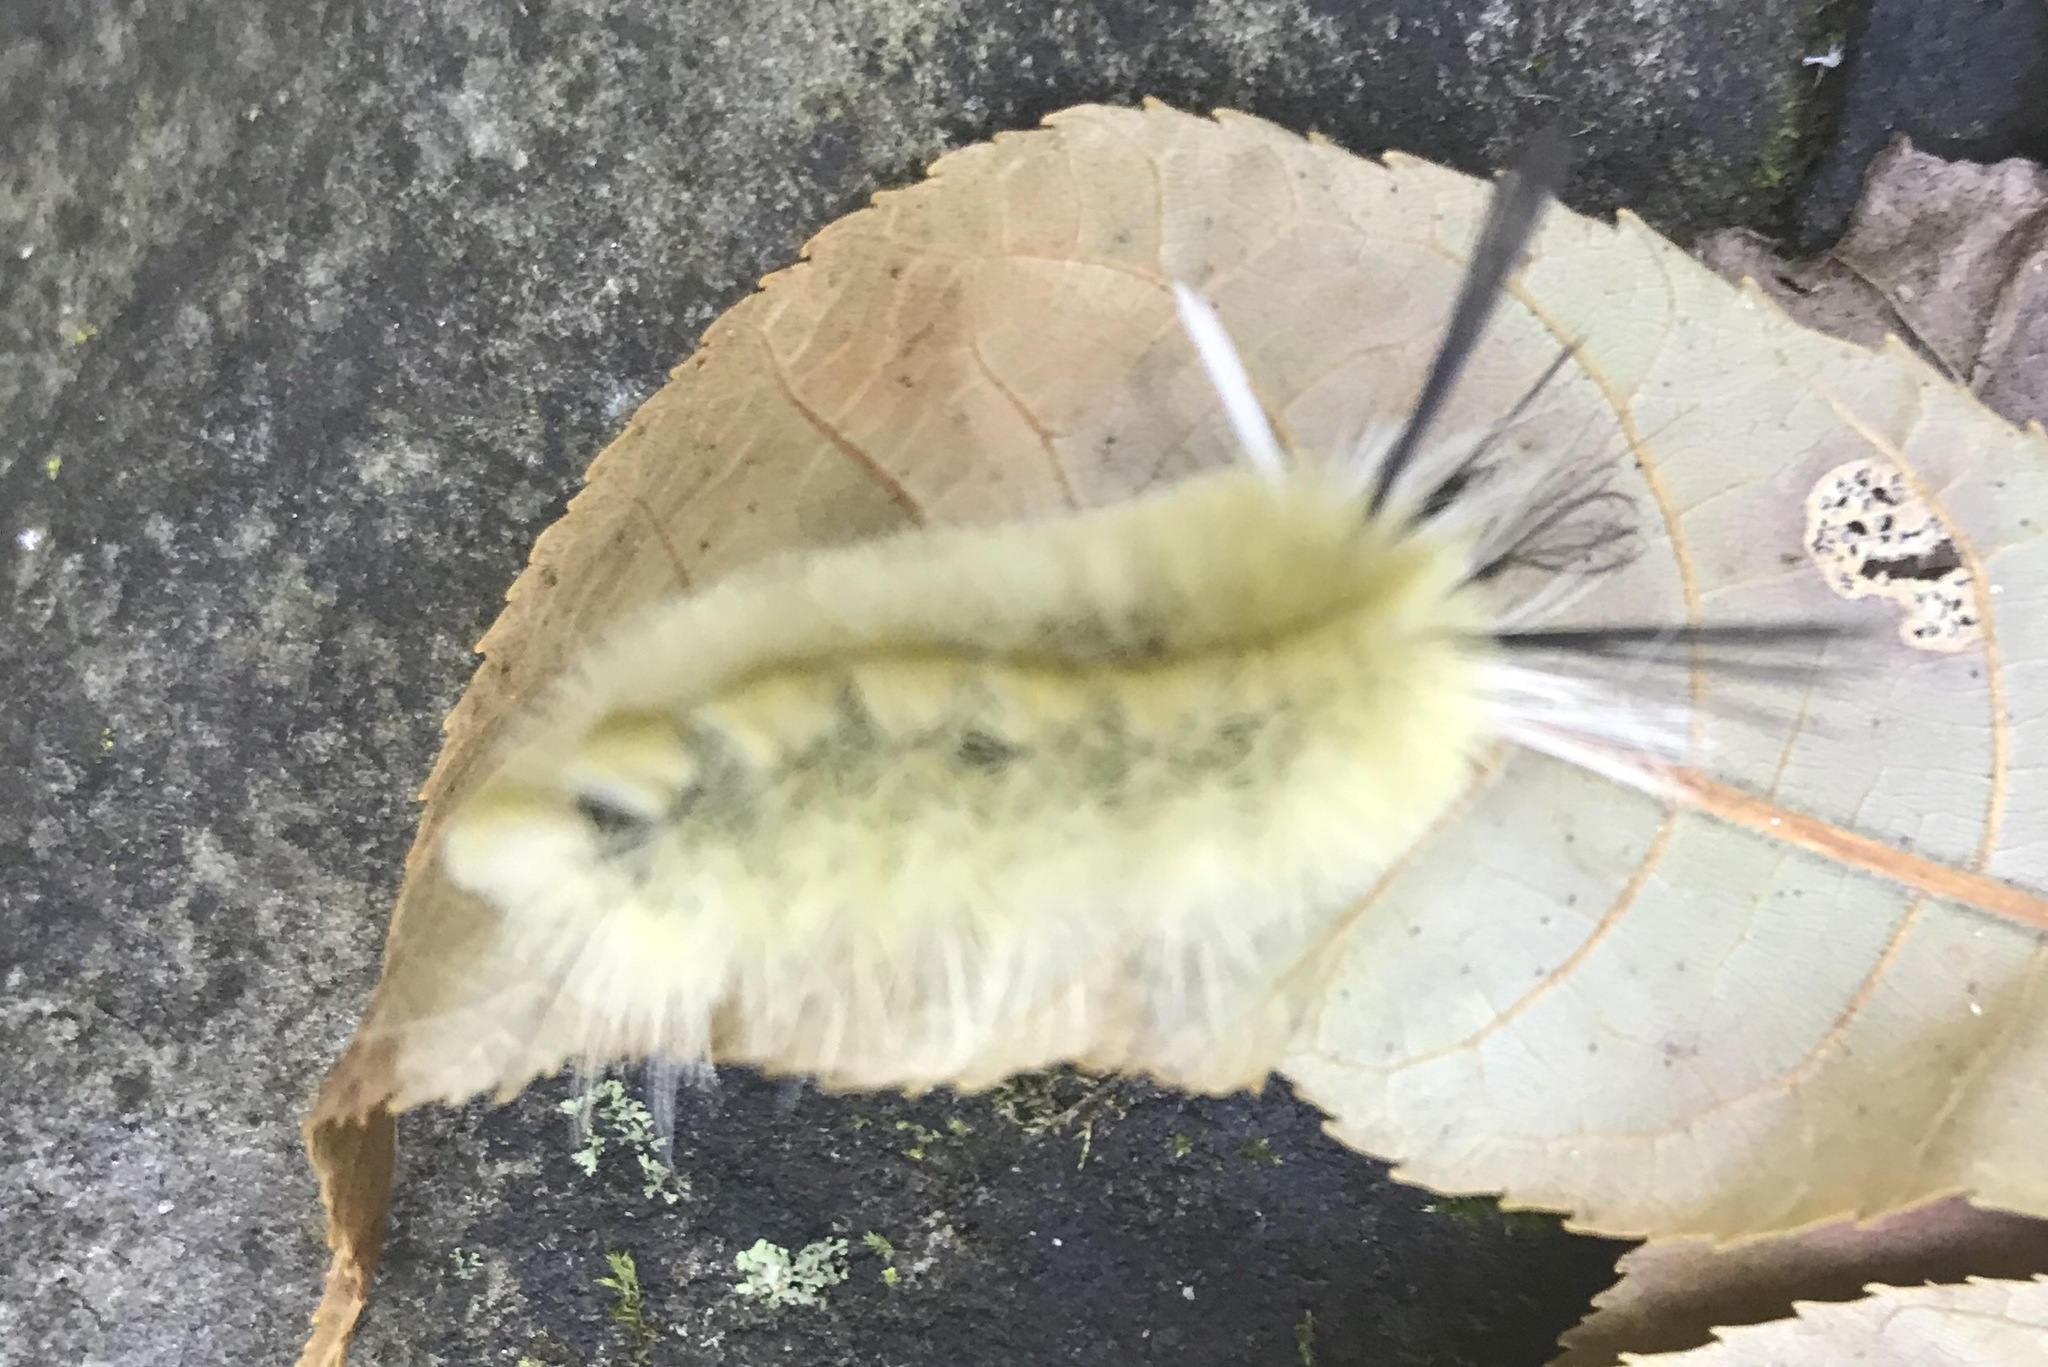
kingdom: Animalia
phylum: Arthropoda
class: Insecta
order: Lepidoptera
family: Erebidae
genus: Halysidota
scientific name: Halysidota tessellaris
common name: Banded tussock moth
